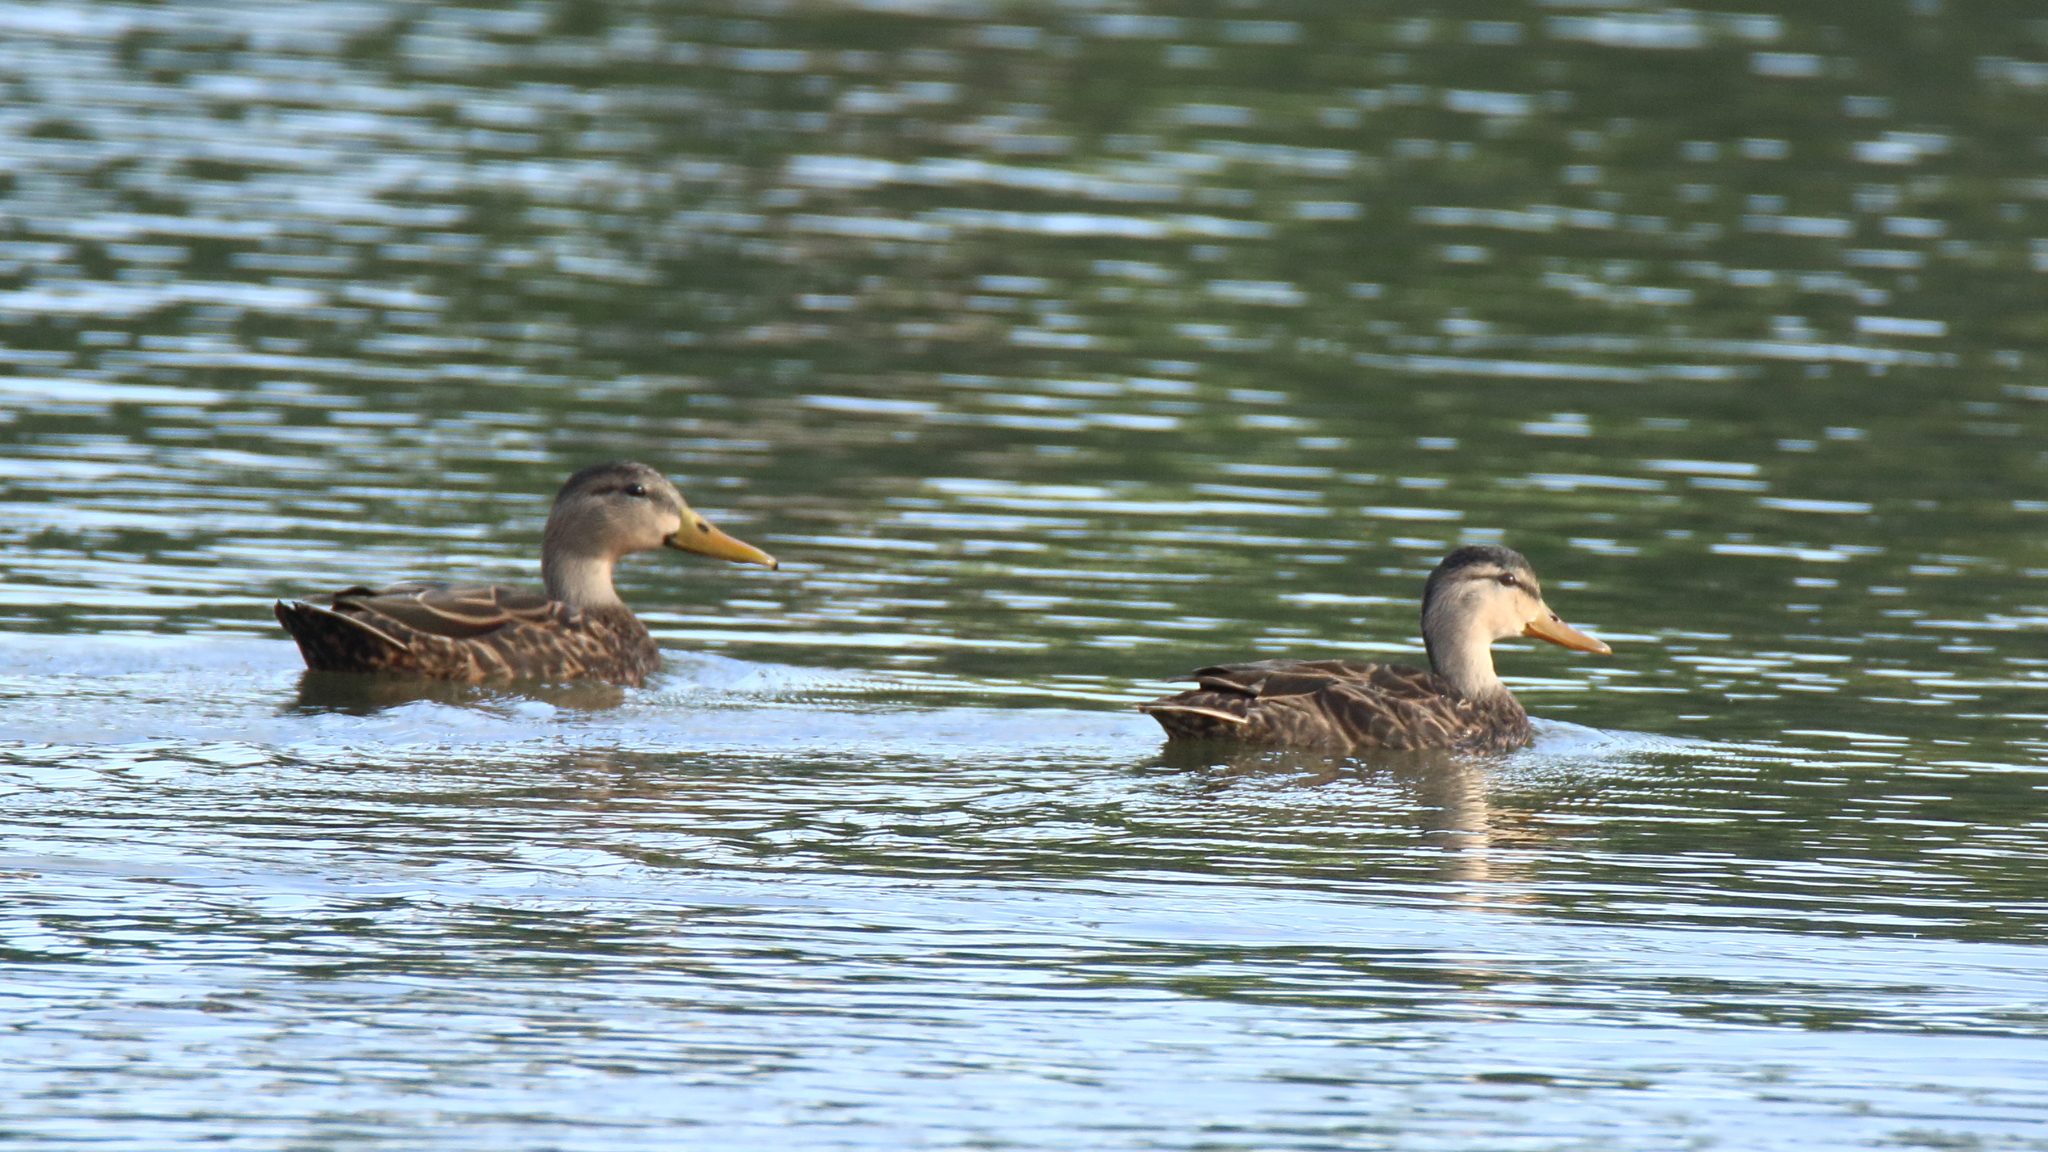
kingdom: Animalia
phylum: Chordata
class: Aves
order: Anseriformes
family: Anatidae
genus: Anas
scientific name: Anas fulvigula
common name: Mottled duck
